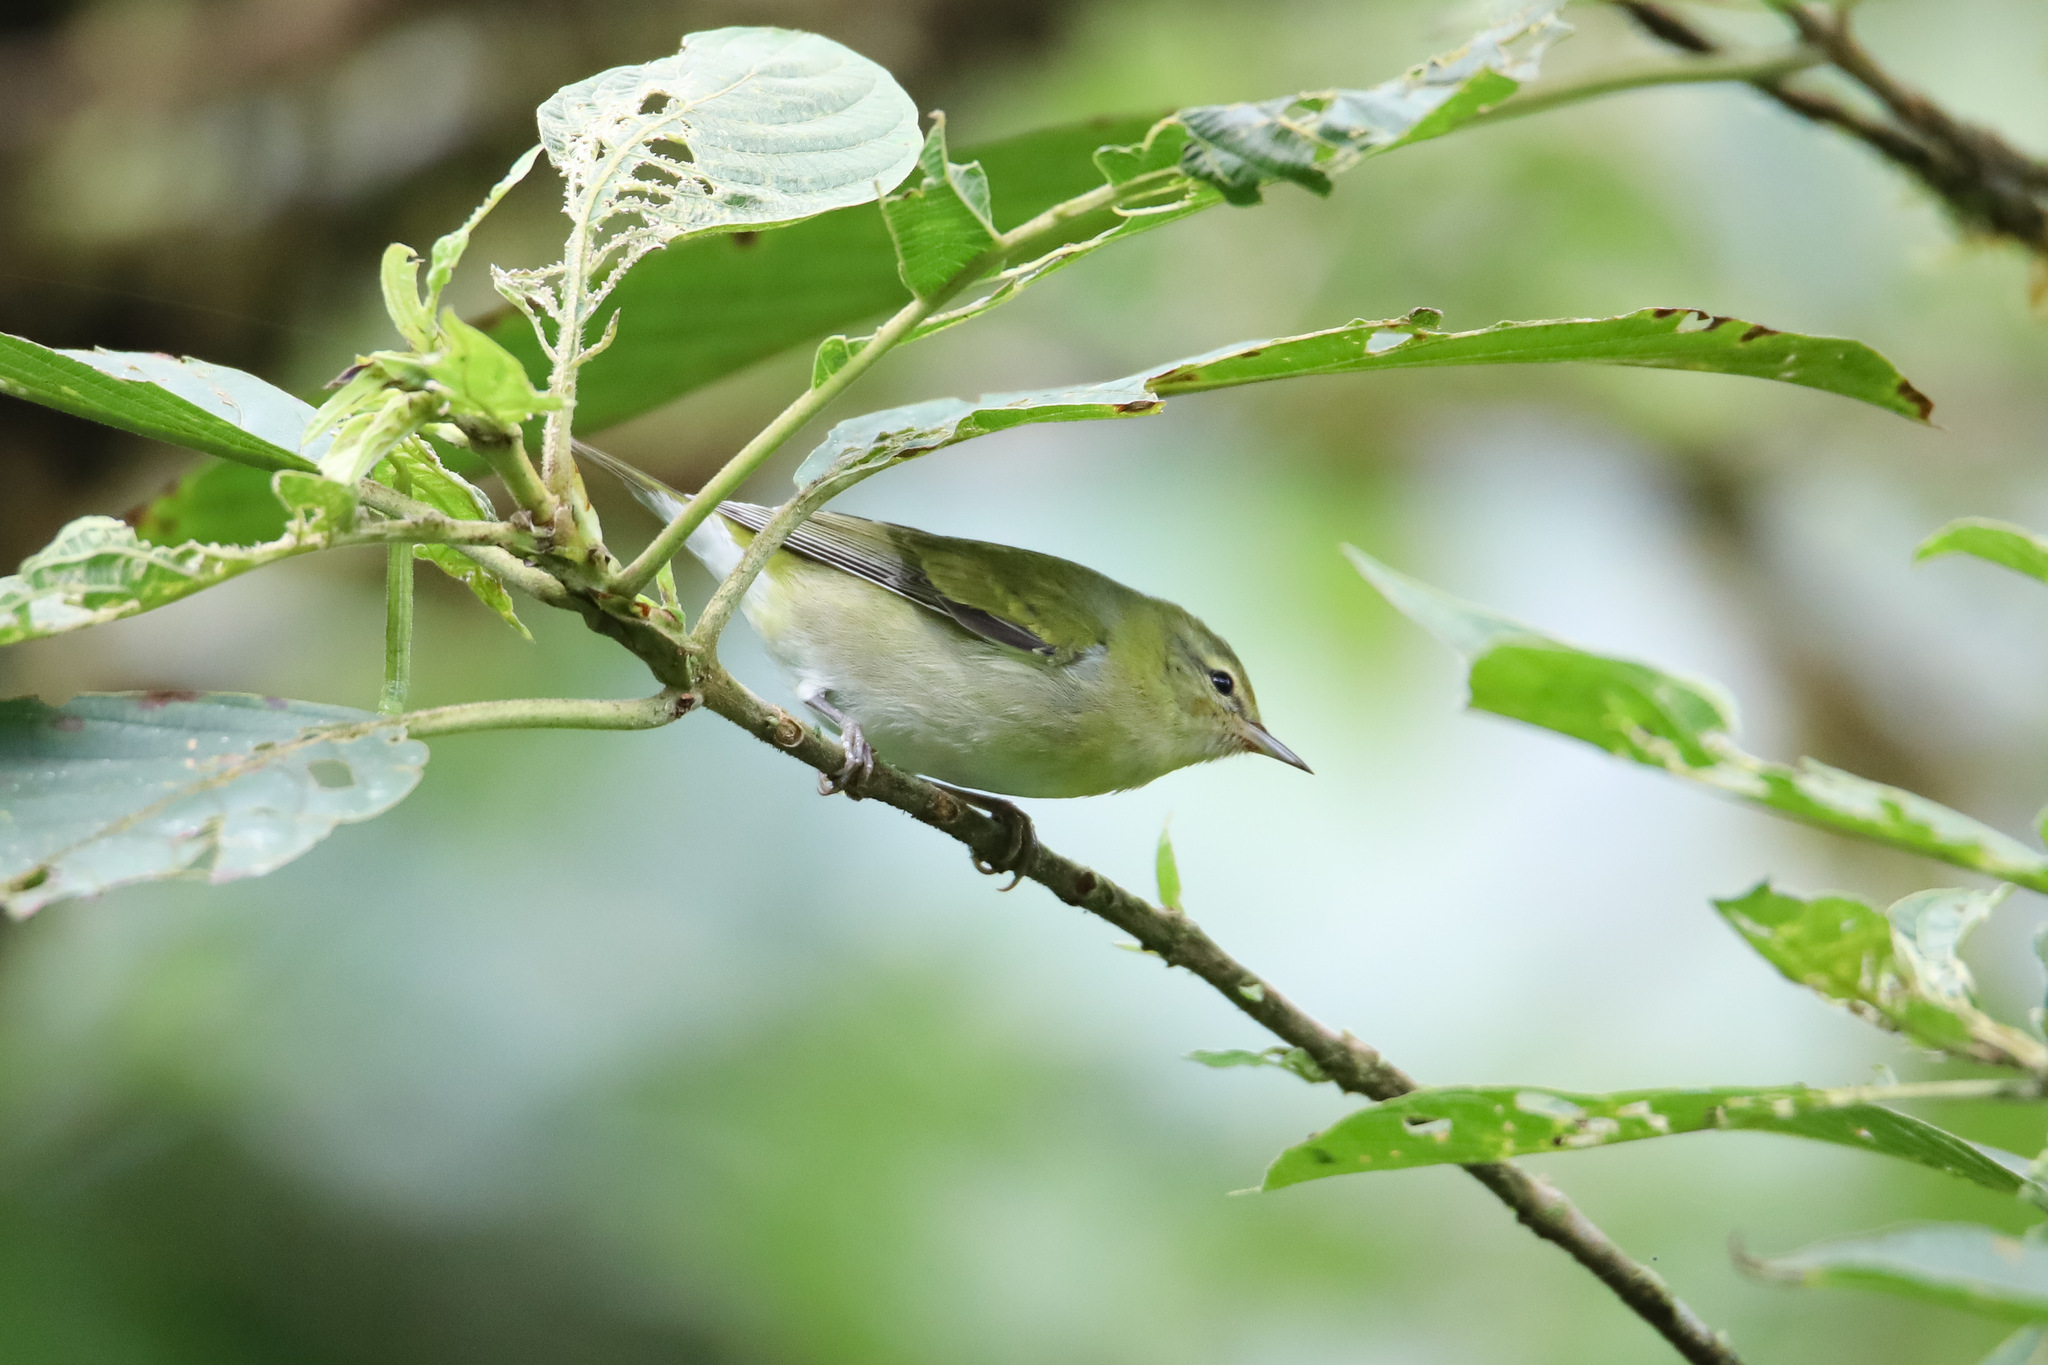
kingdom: Animalia
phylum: Chordata
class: Aves
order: Passeriformes
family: Parulidae
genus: Leiothlypis
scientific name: Leiothlypis peregrina
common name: Tennessee warbler
